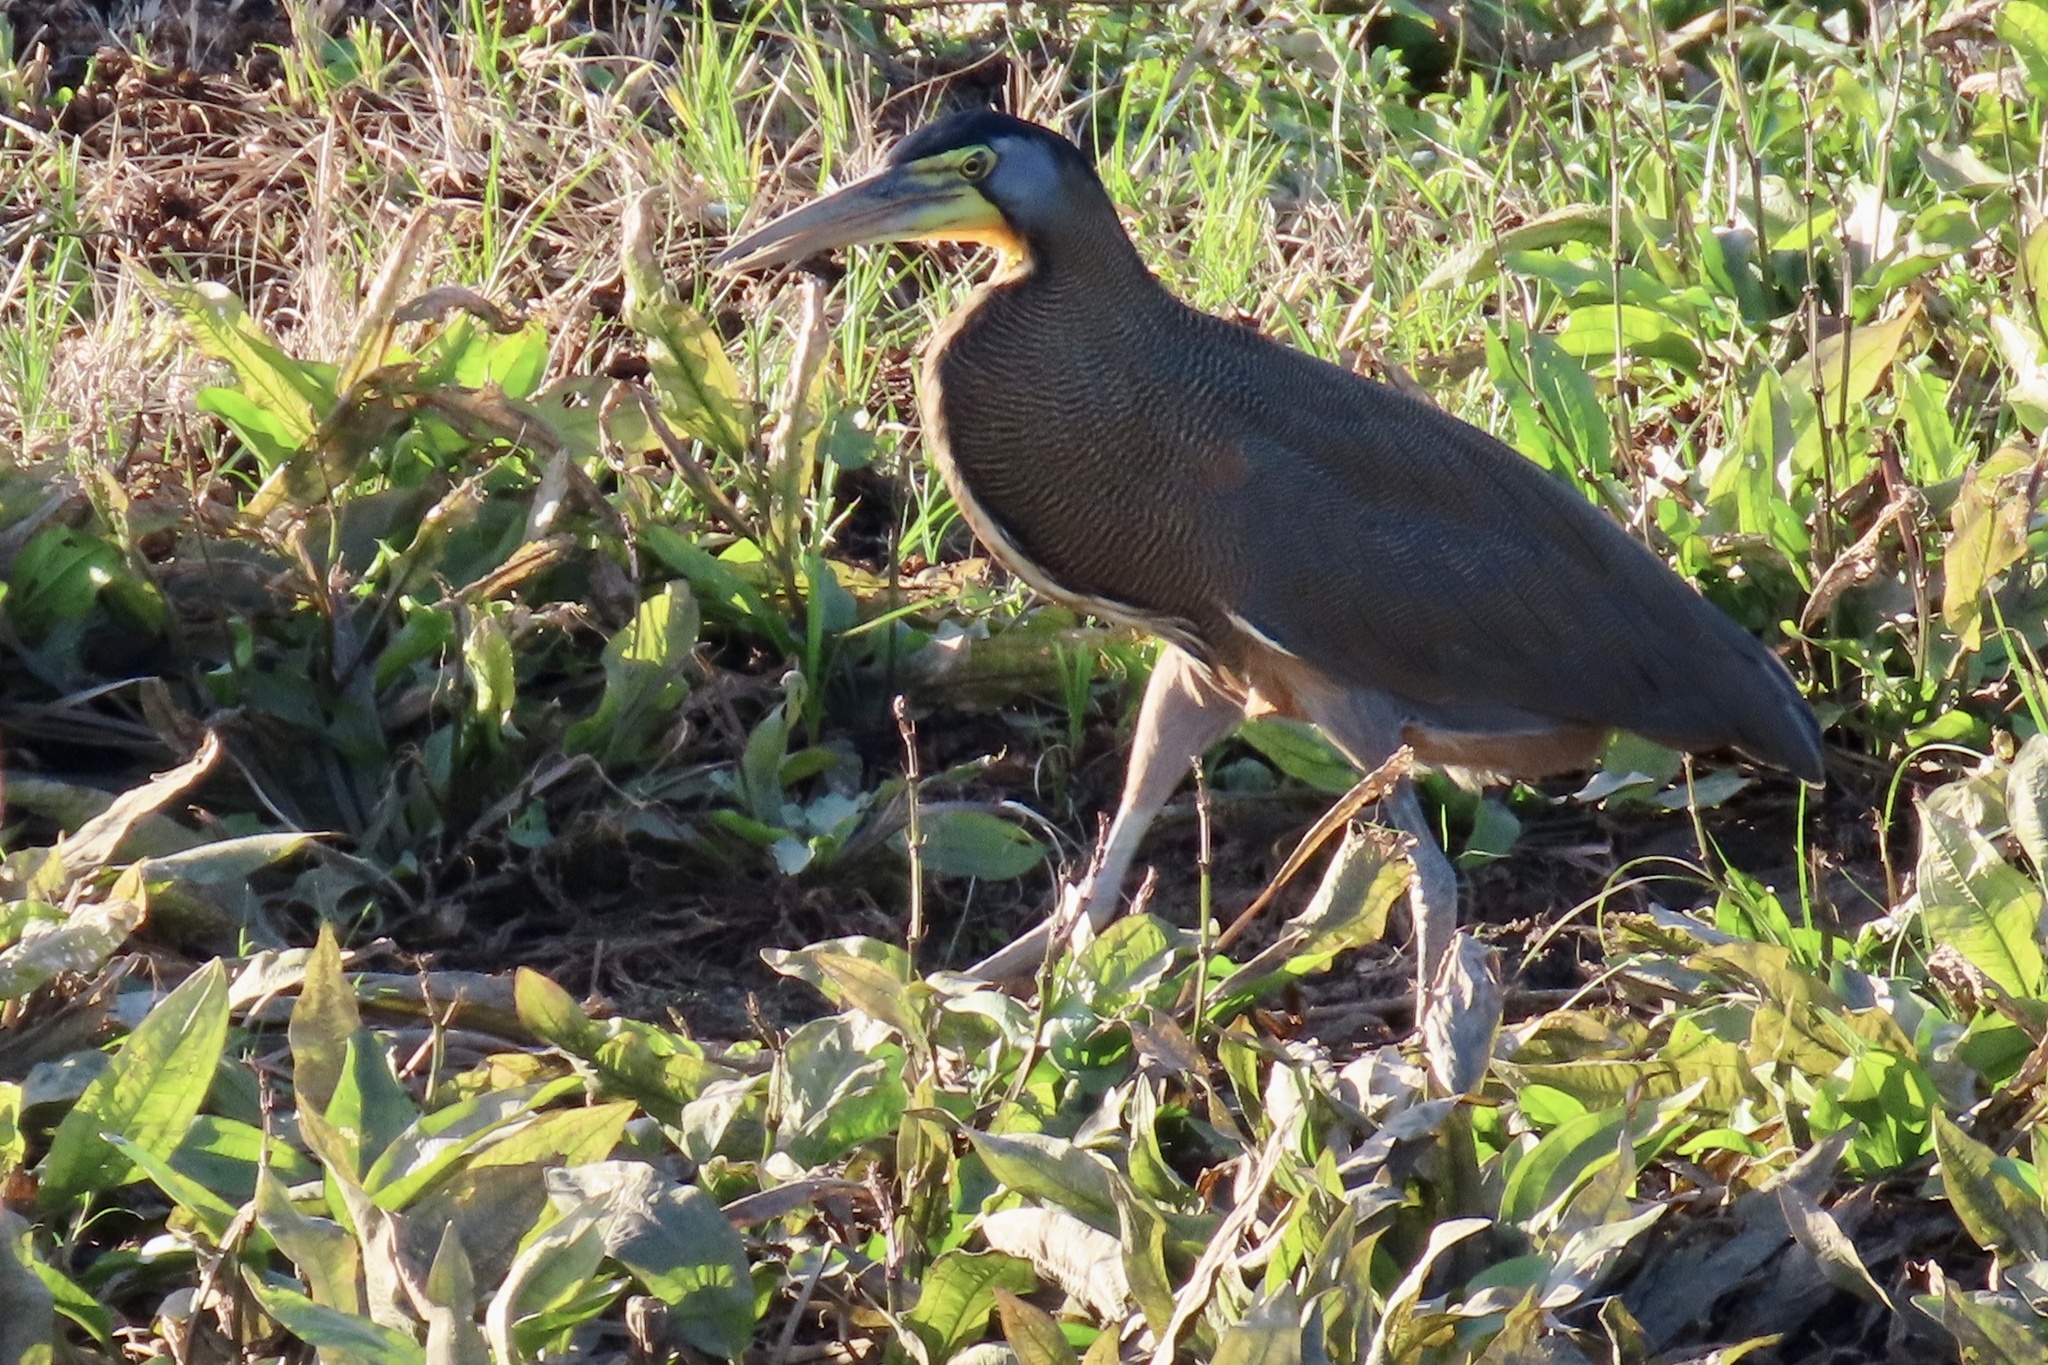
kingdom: Animalia
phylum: Chordata
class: Aves
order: Pelecaniformes
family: Ardeidae
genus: Tigrisoma
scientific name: Tigrisoma mexicanum
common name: Bare-throated tiger-heron
